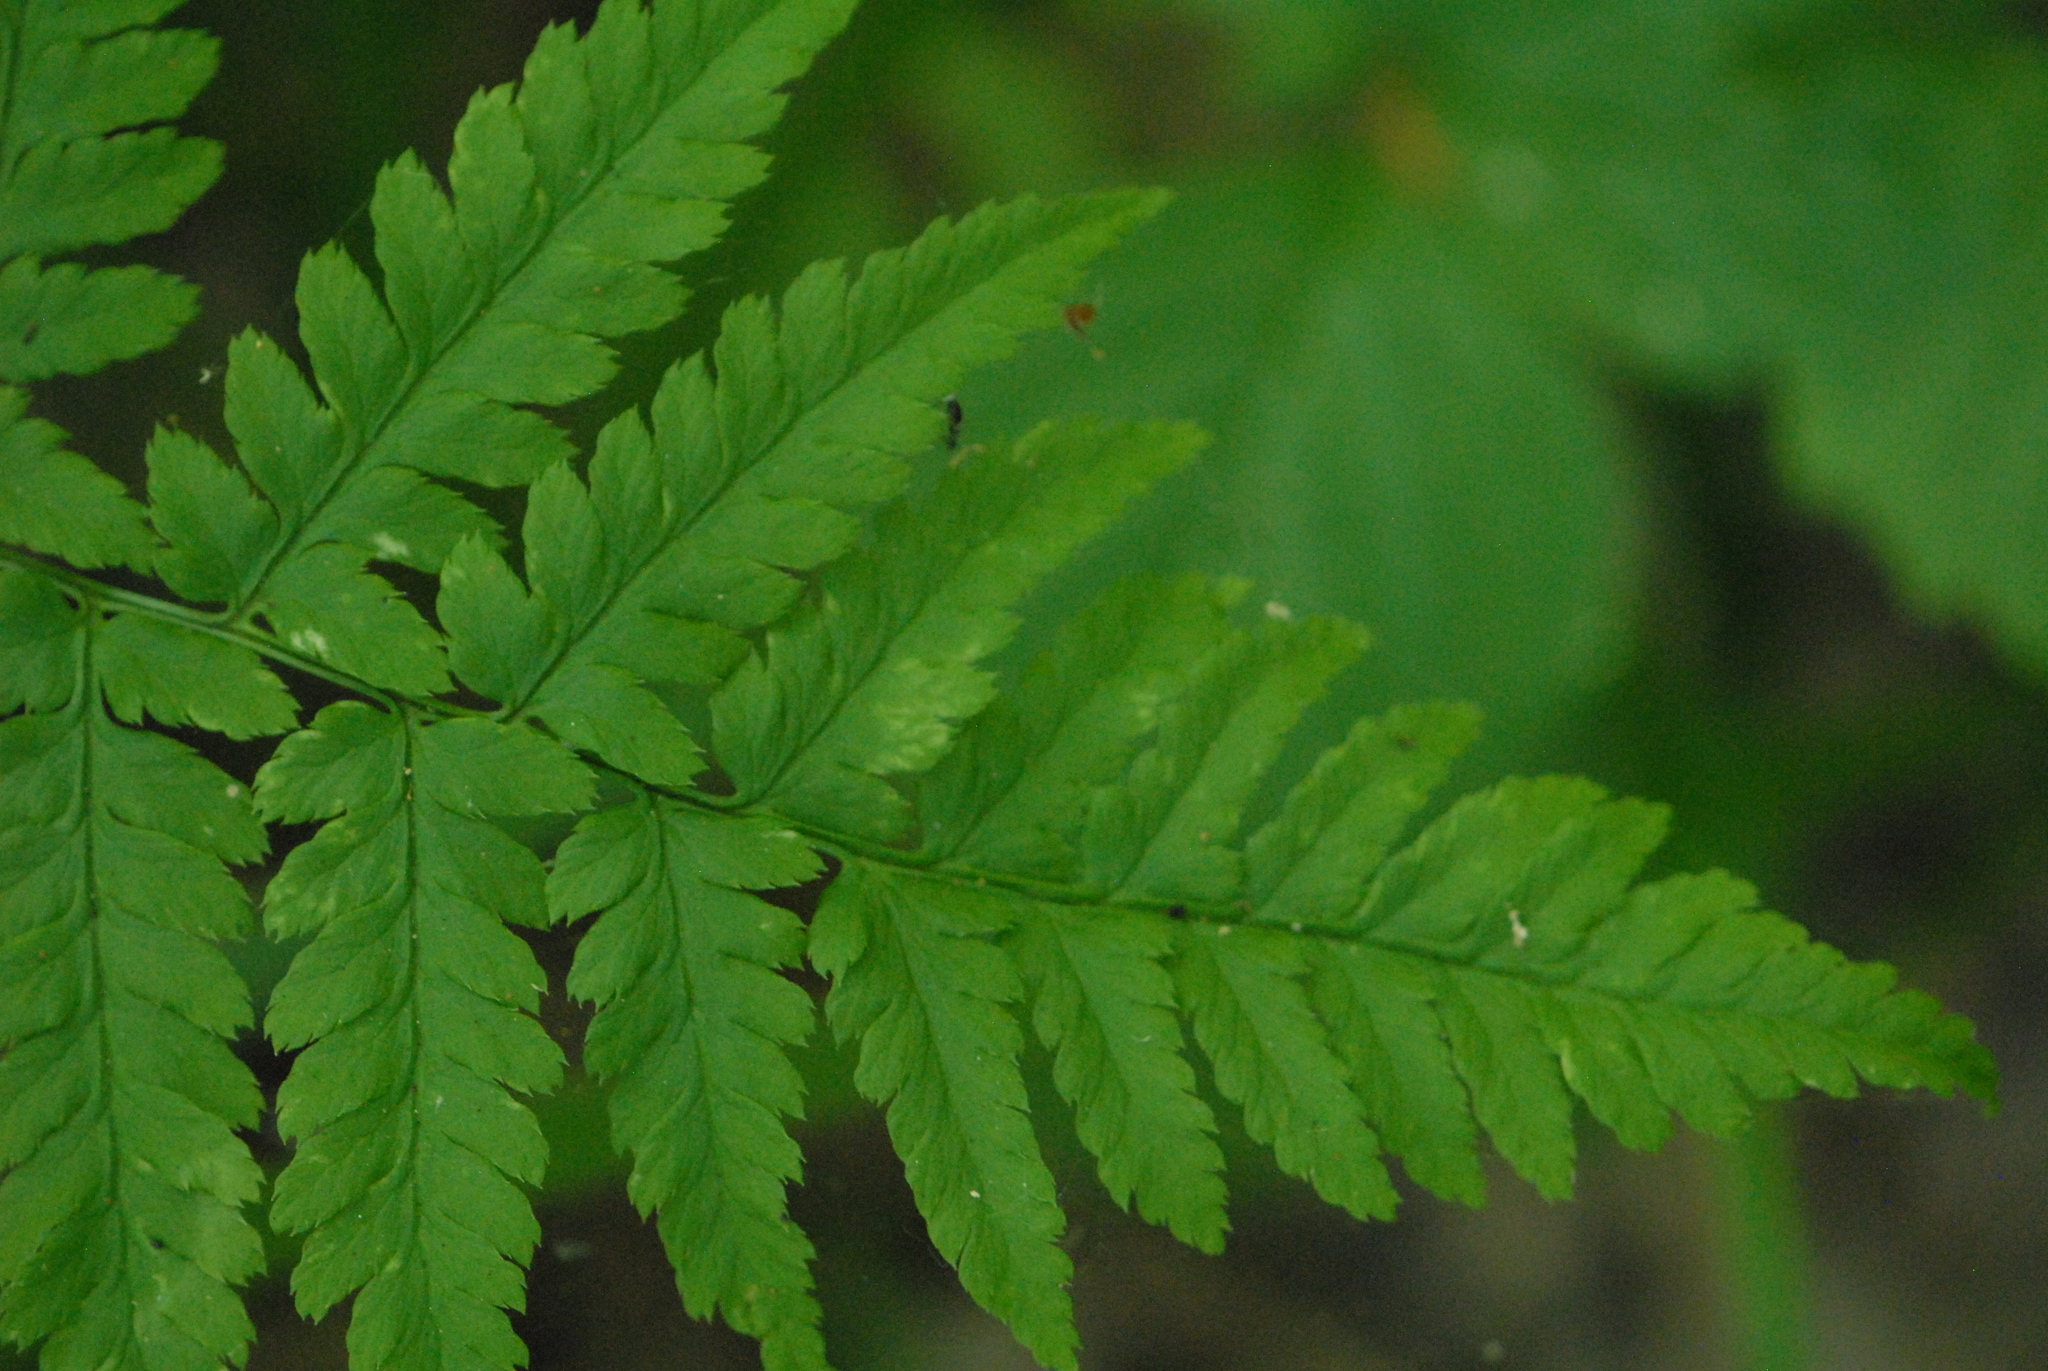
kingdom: Plantae
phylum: Tracheophyta
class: Polypodiopsida
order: Polypodiales
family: Dryopteridaceae
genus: Dryopteris
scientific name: Dryopteris carthusiana
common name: Narrow buckler-fern
